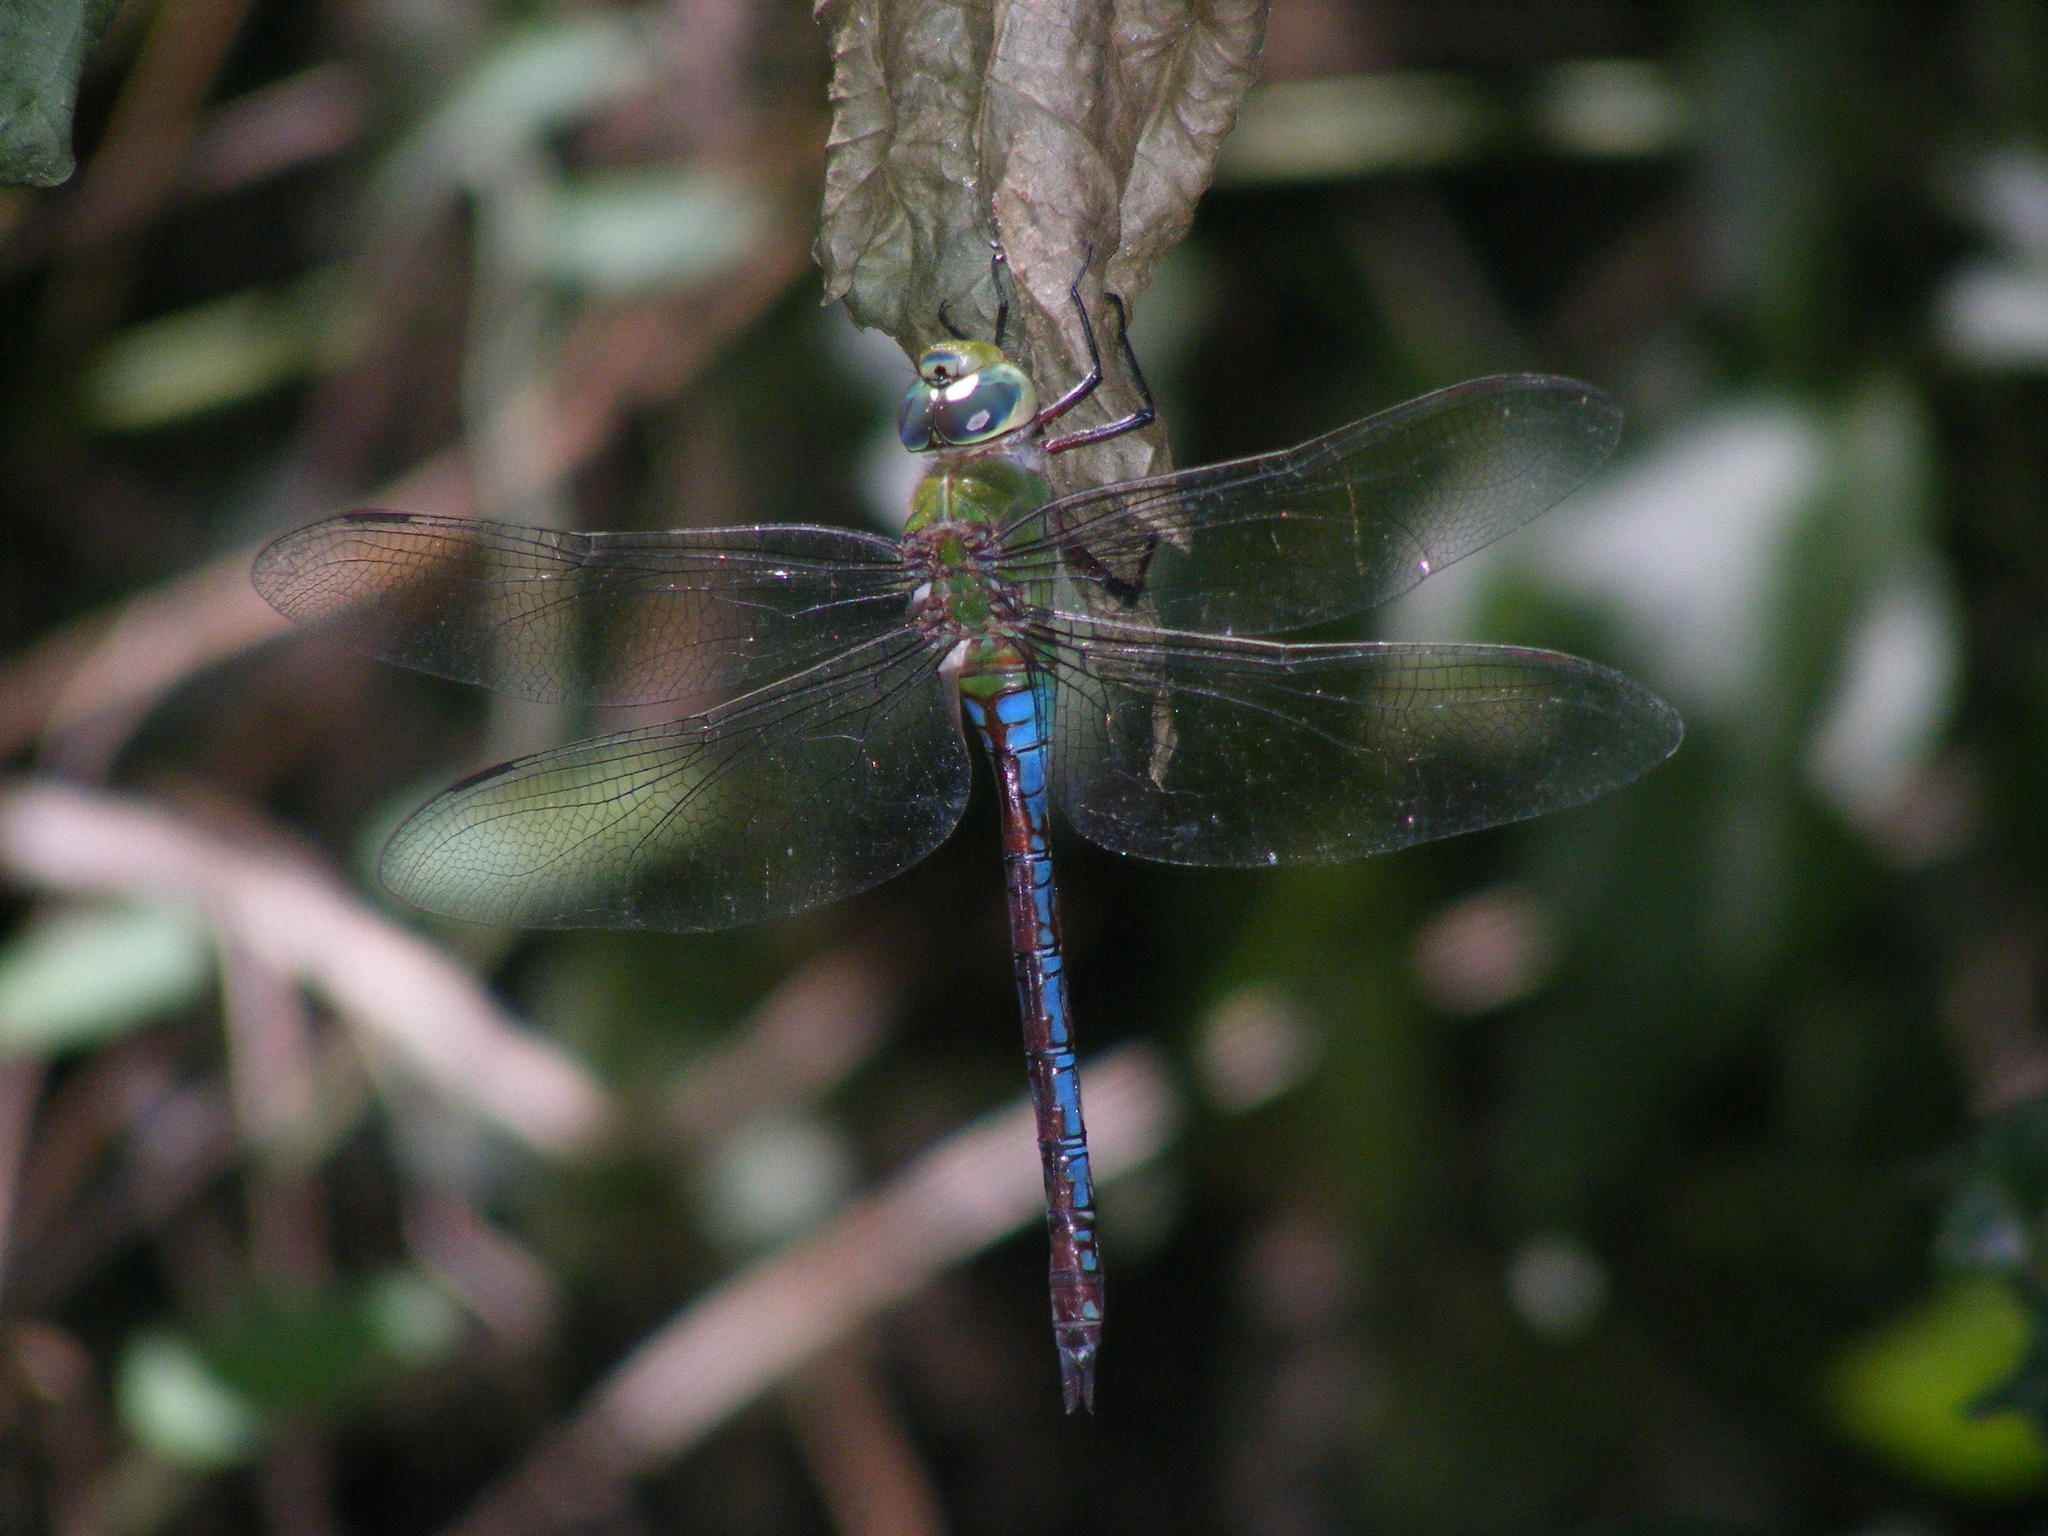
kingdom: Animalia
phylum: Arthropoda
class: Insecta
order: Odonata
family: Aeshnidae
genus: Anax
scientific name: Anax imperator
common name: Emperor dragonfly
